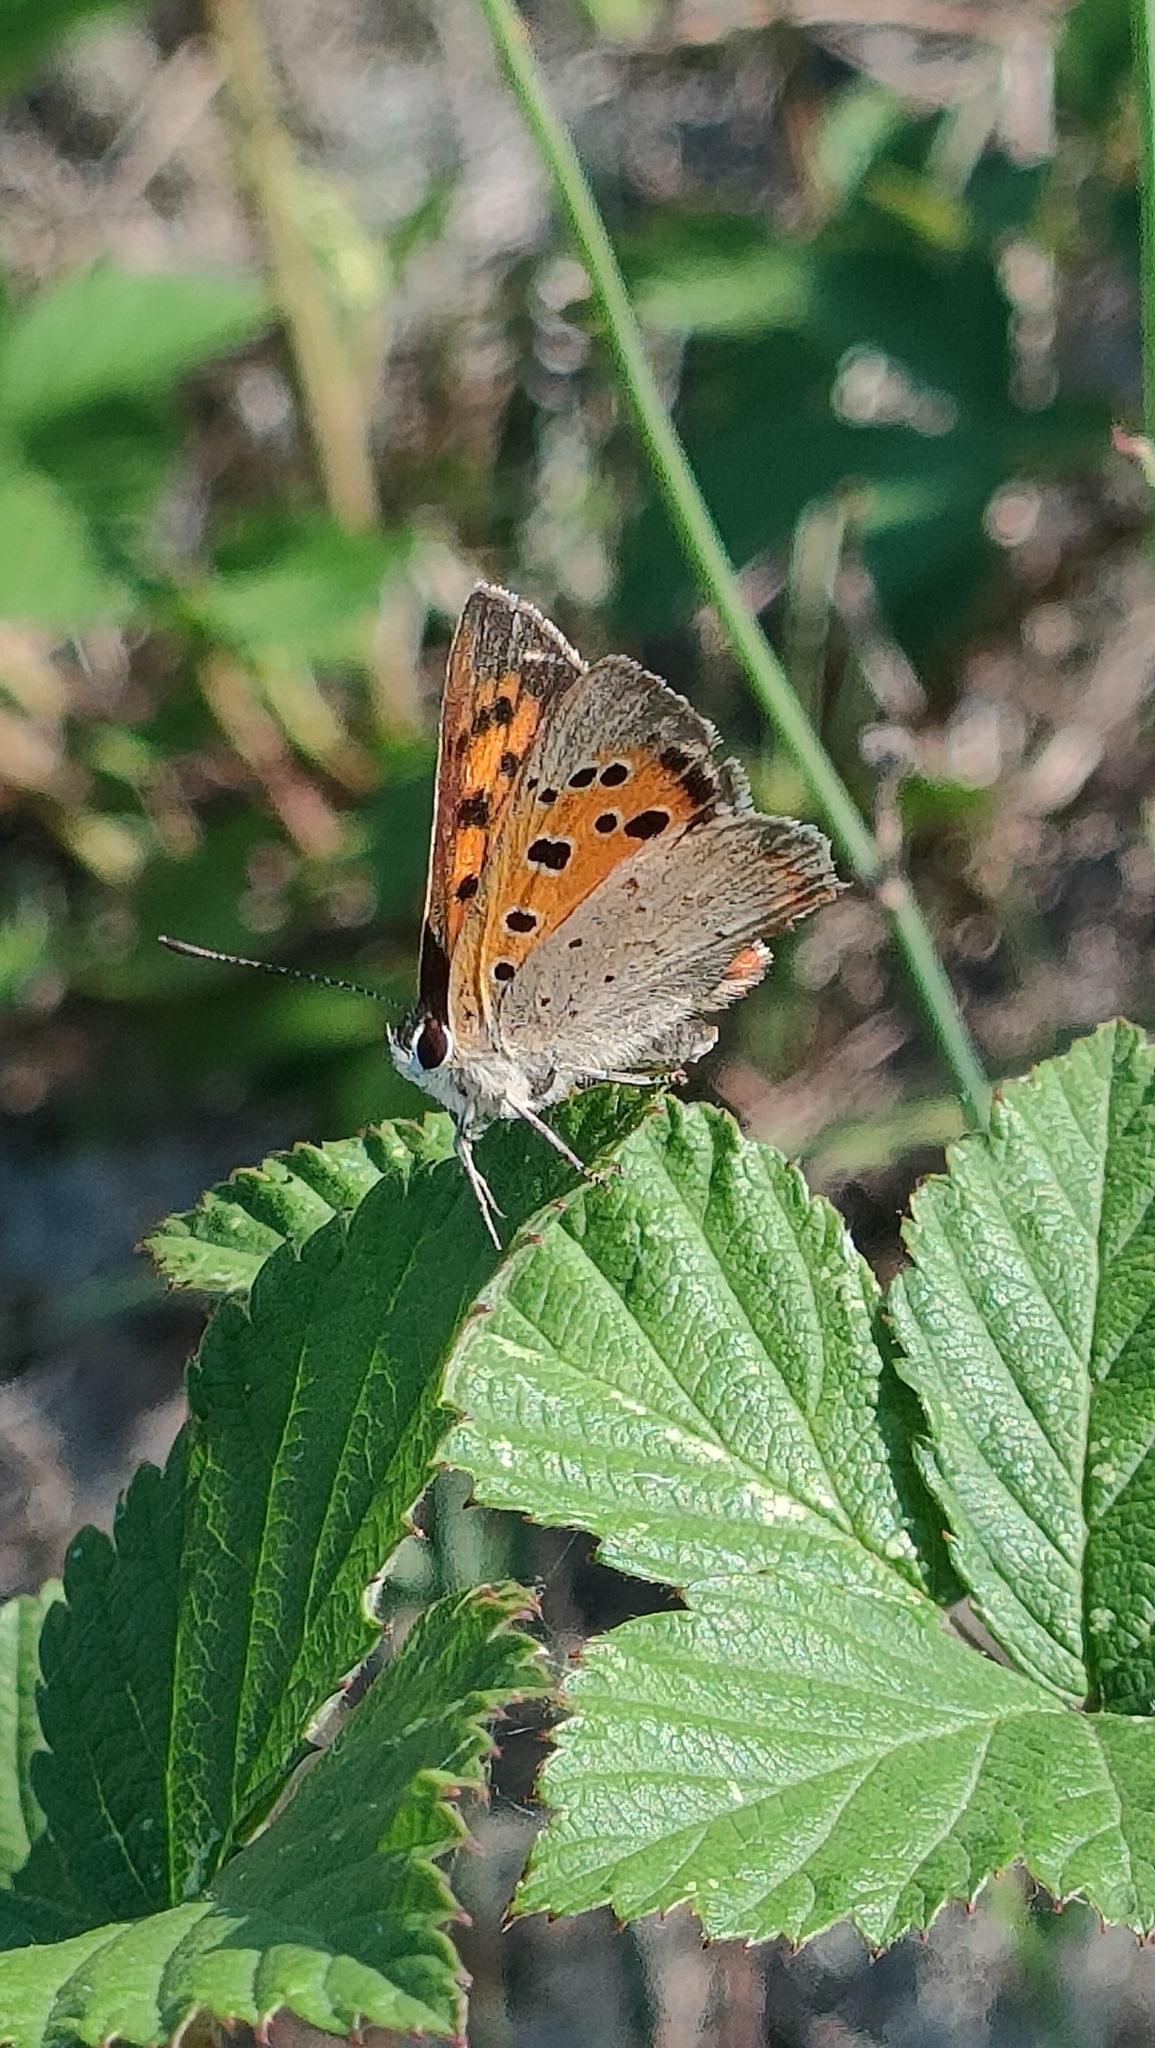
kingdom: Animalia
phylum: Arthropoda
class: Insecta
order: Lepidoptera
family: Lycaenidae
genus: Lycaena
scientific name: Lycaena phlaeas
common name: Small copper
